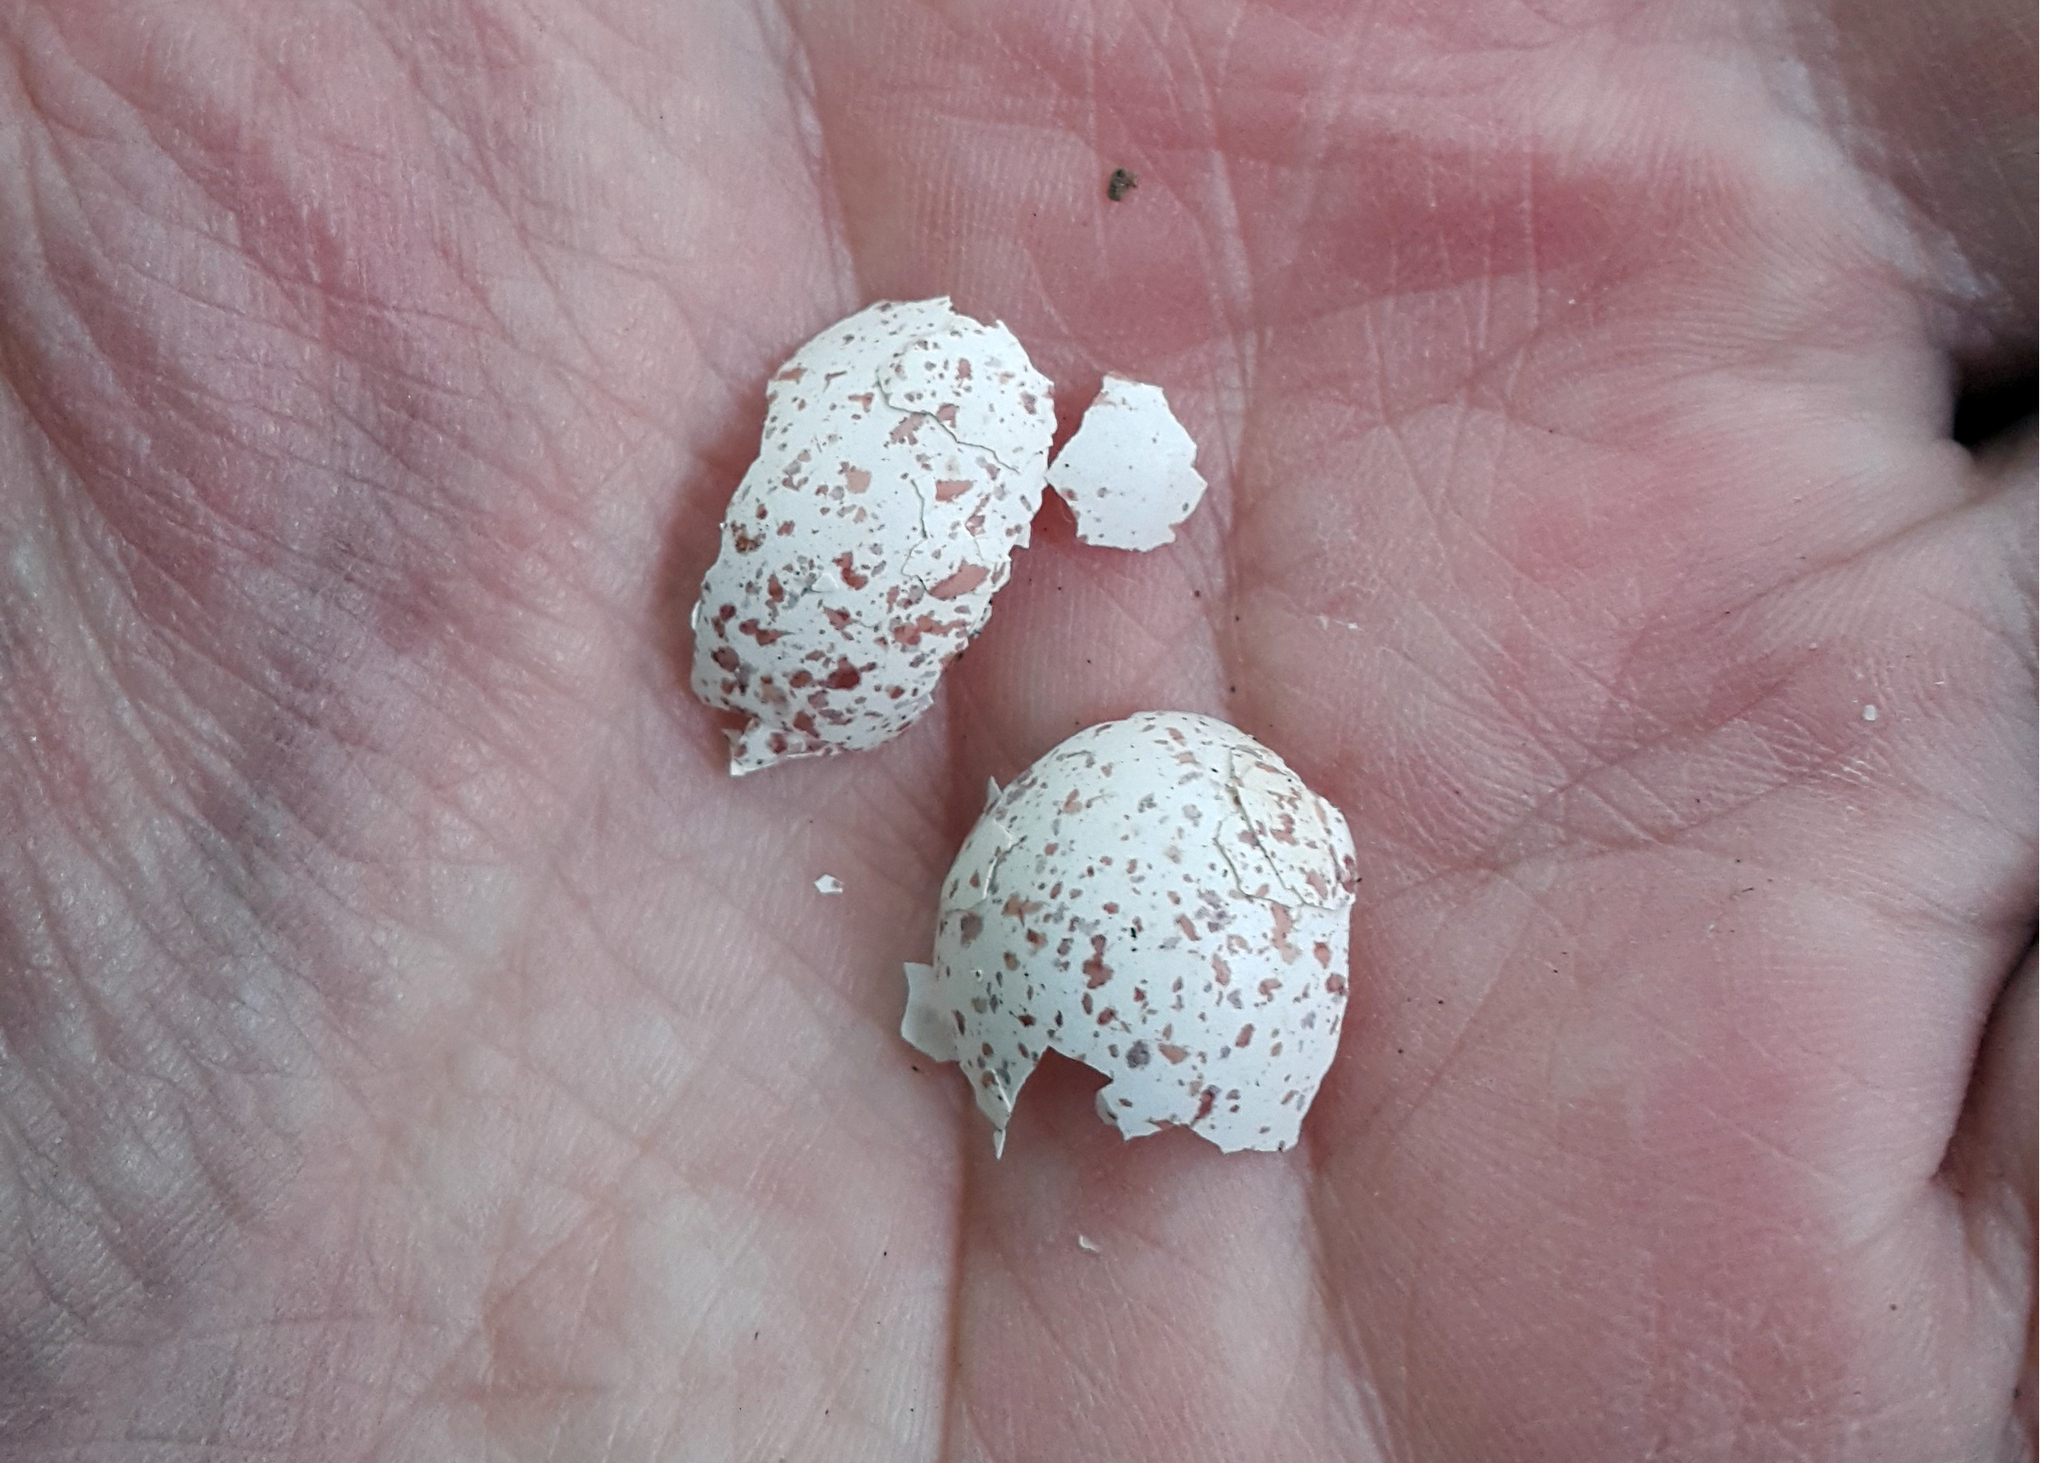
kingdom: Animalia
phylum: Chordata
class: Aves
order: Passeriformes
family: Sittidae
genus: Sitta
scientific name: Sitta europaea
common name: Eurasian nuthatch
